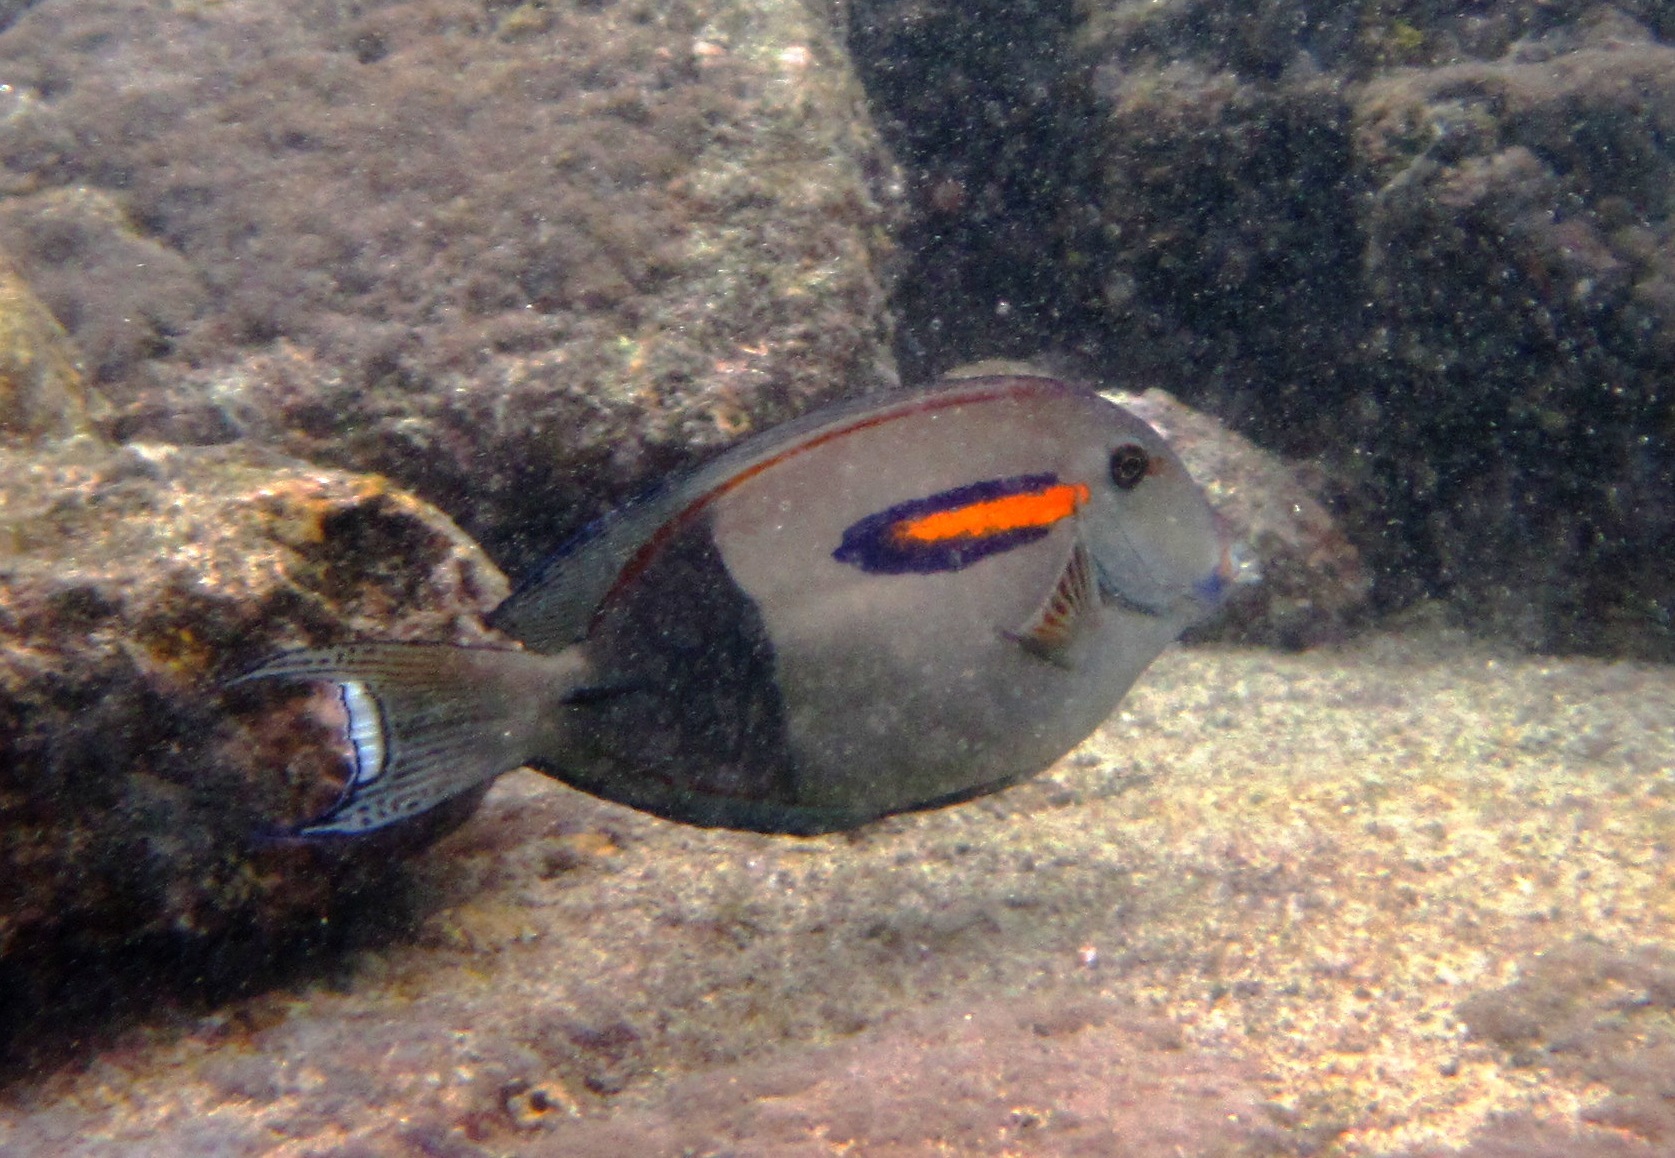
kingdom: Animalia
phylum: Chordata
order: Perciformes
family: Acanthuridae
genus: Acanthurus
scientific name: Acanthurus olivaceus
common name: Gendarme fish
